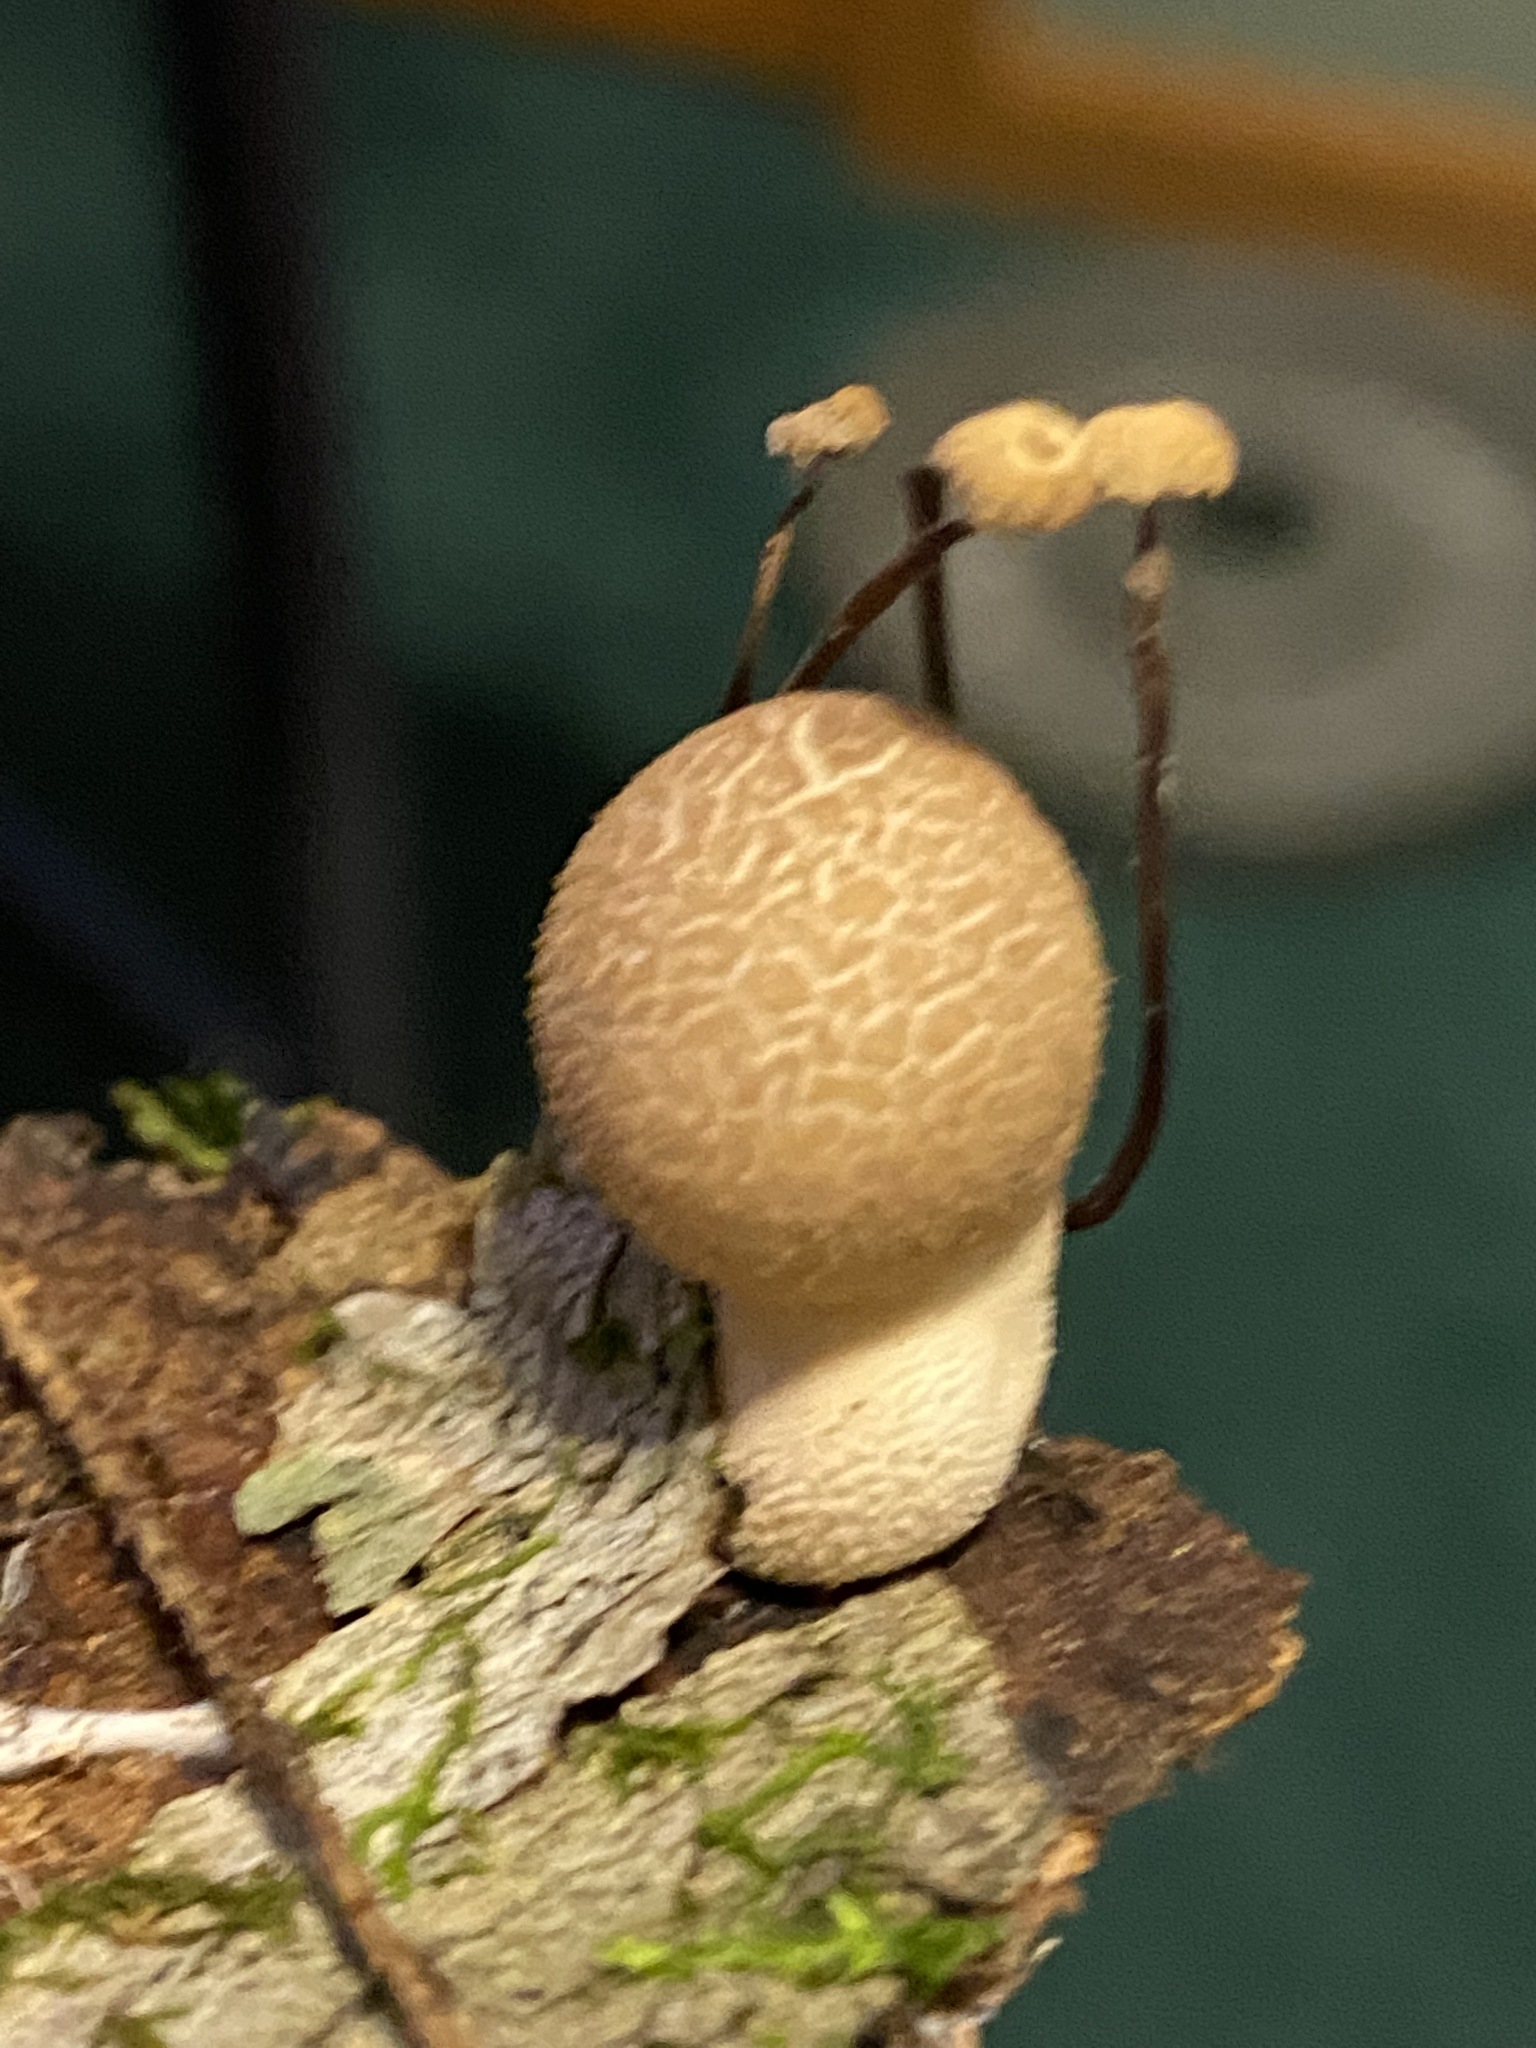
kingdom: Fungi
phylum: Basidiomycota
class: Agaricomycetes
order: Agaricales
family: Lycoperdaceae
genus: Apioperdon
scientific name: Apioperdon pyriforme
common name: Pear-shaped puffball
